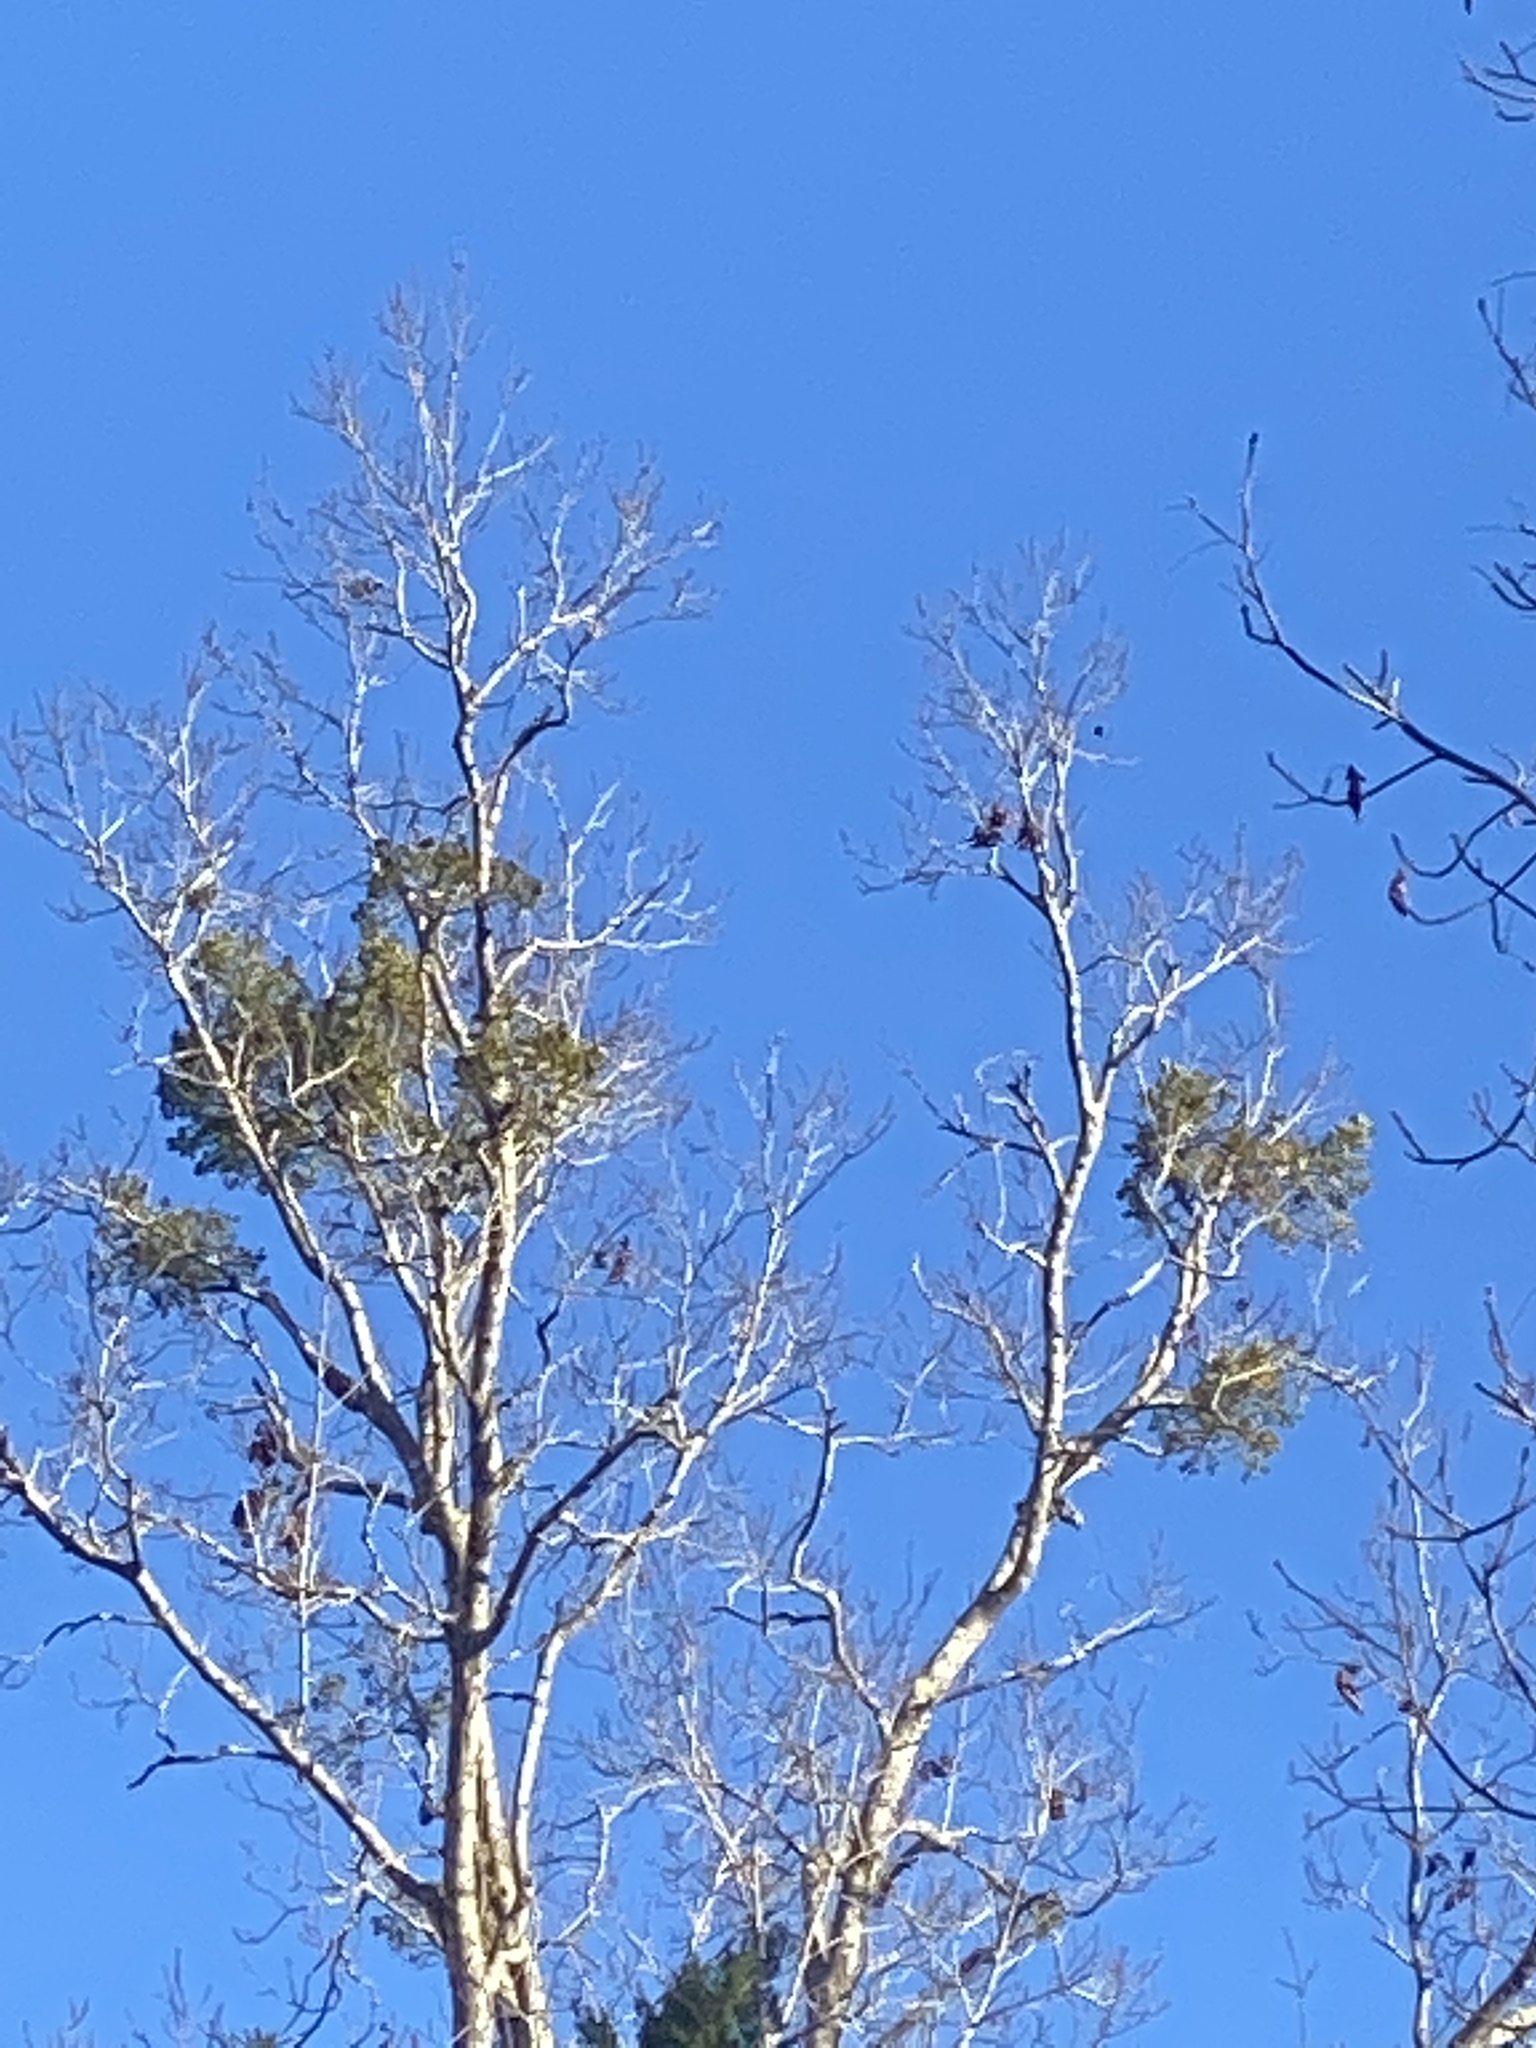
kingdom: Plantae
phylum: Tracheophyta
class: Magnoliopsida
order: Santalales
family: Viscaceae
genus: Phoradendron
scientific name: Phoradendron leucarpum
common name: Pacific mistletoe
